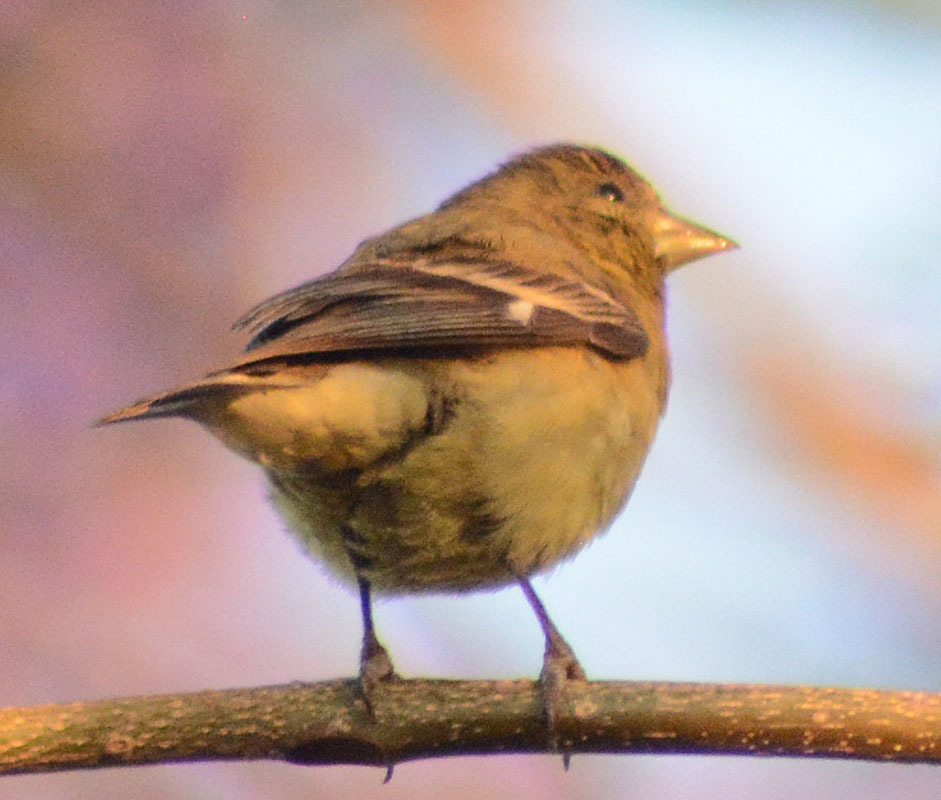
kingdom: Animalia
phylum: Chordata
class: Aves
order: Passeriformes
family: Fringillidae
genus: Spinus
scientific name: Spinus psaltria
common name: Lesser goldfinch
